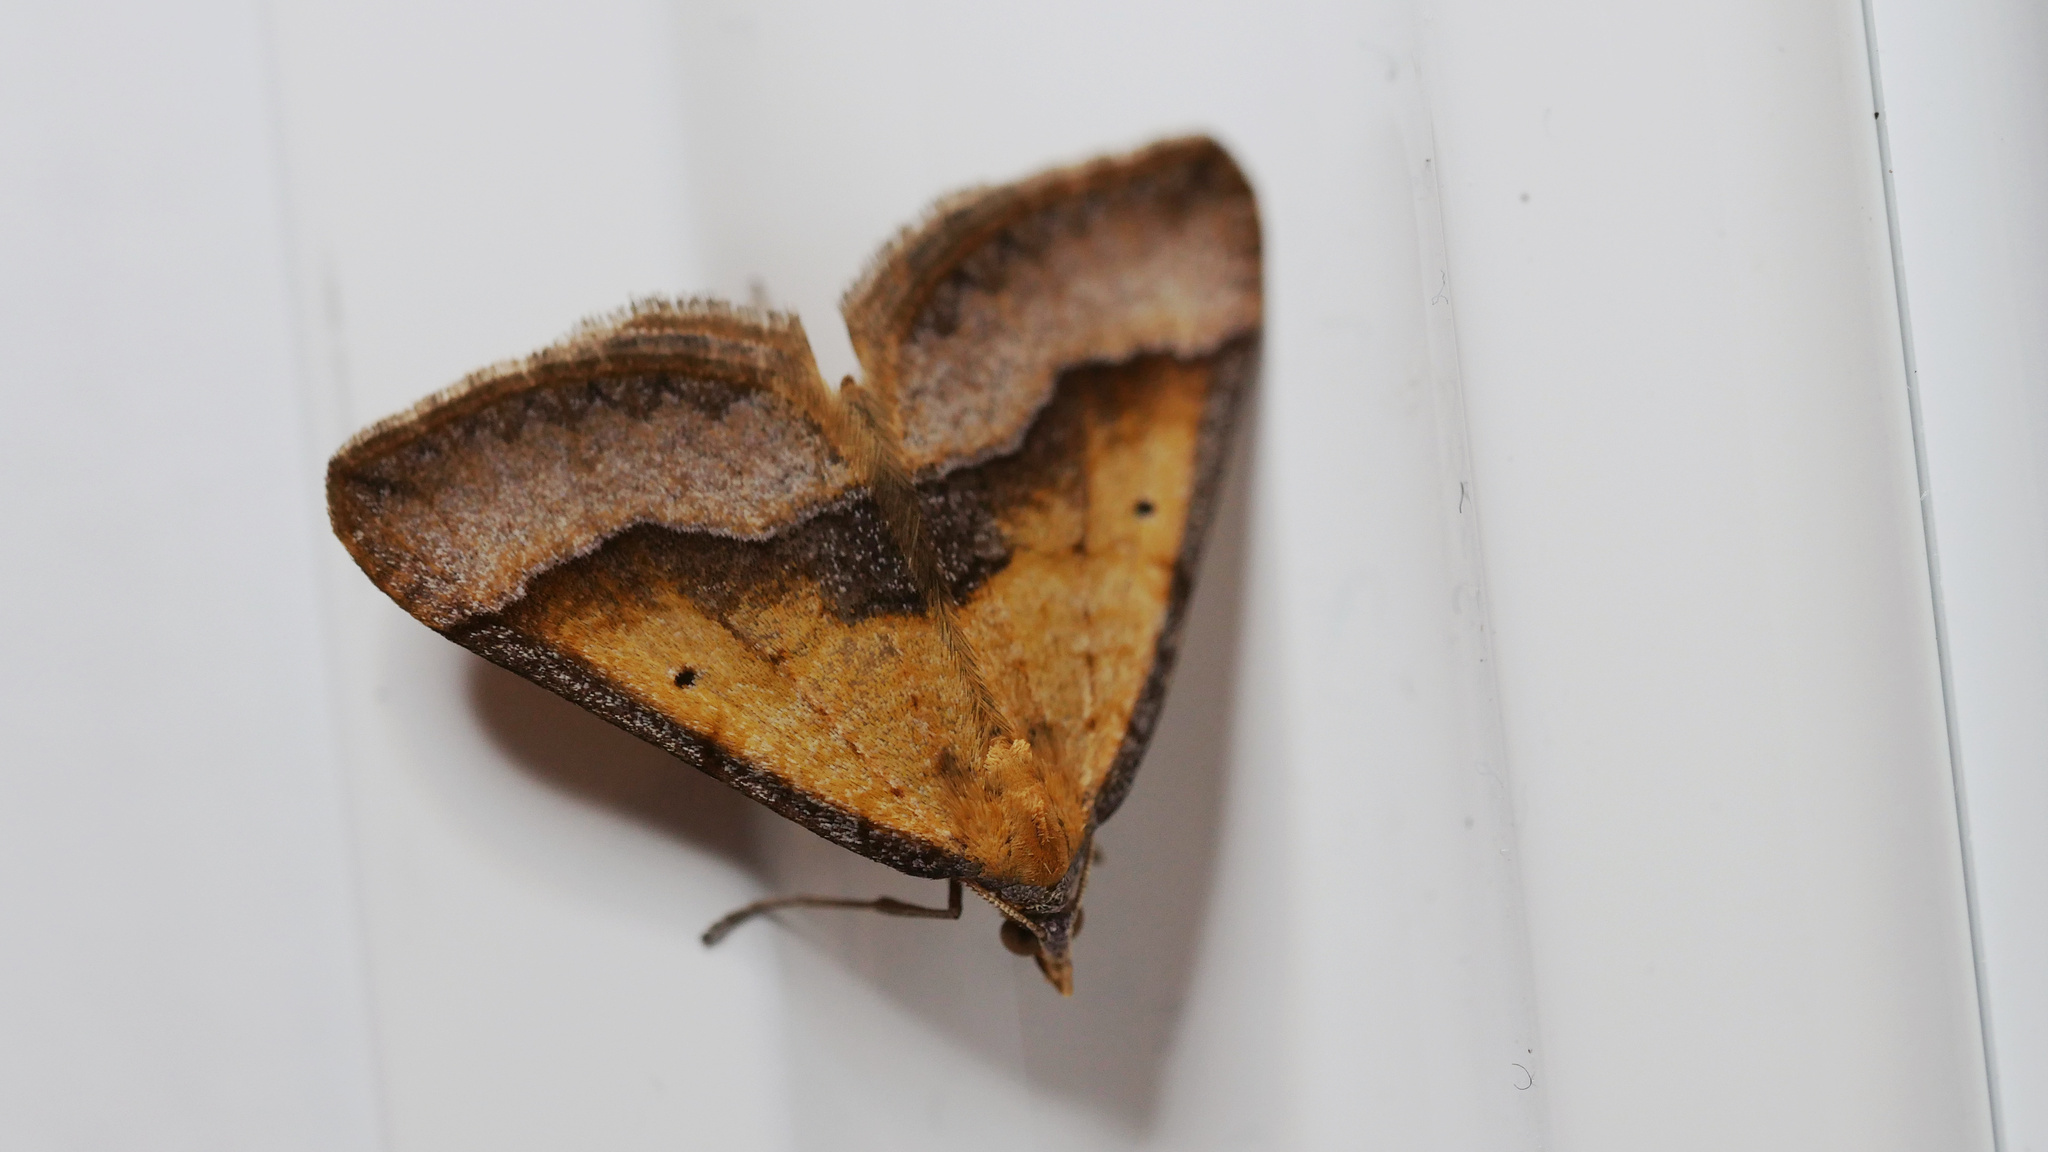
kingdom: Animalia
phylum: Arthropoda
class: Insecta
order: Lepidoptera
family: Geometridae
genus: Anachloris
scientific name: Anachloris subochraria
